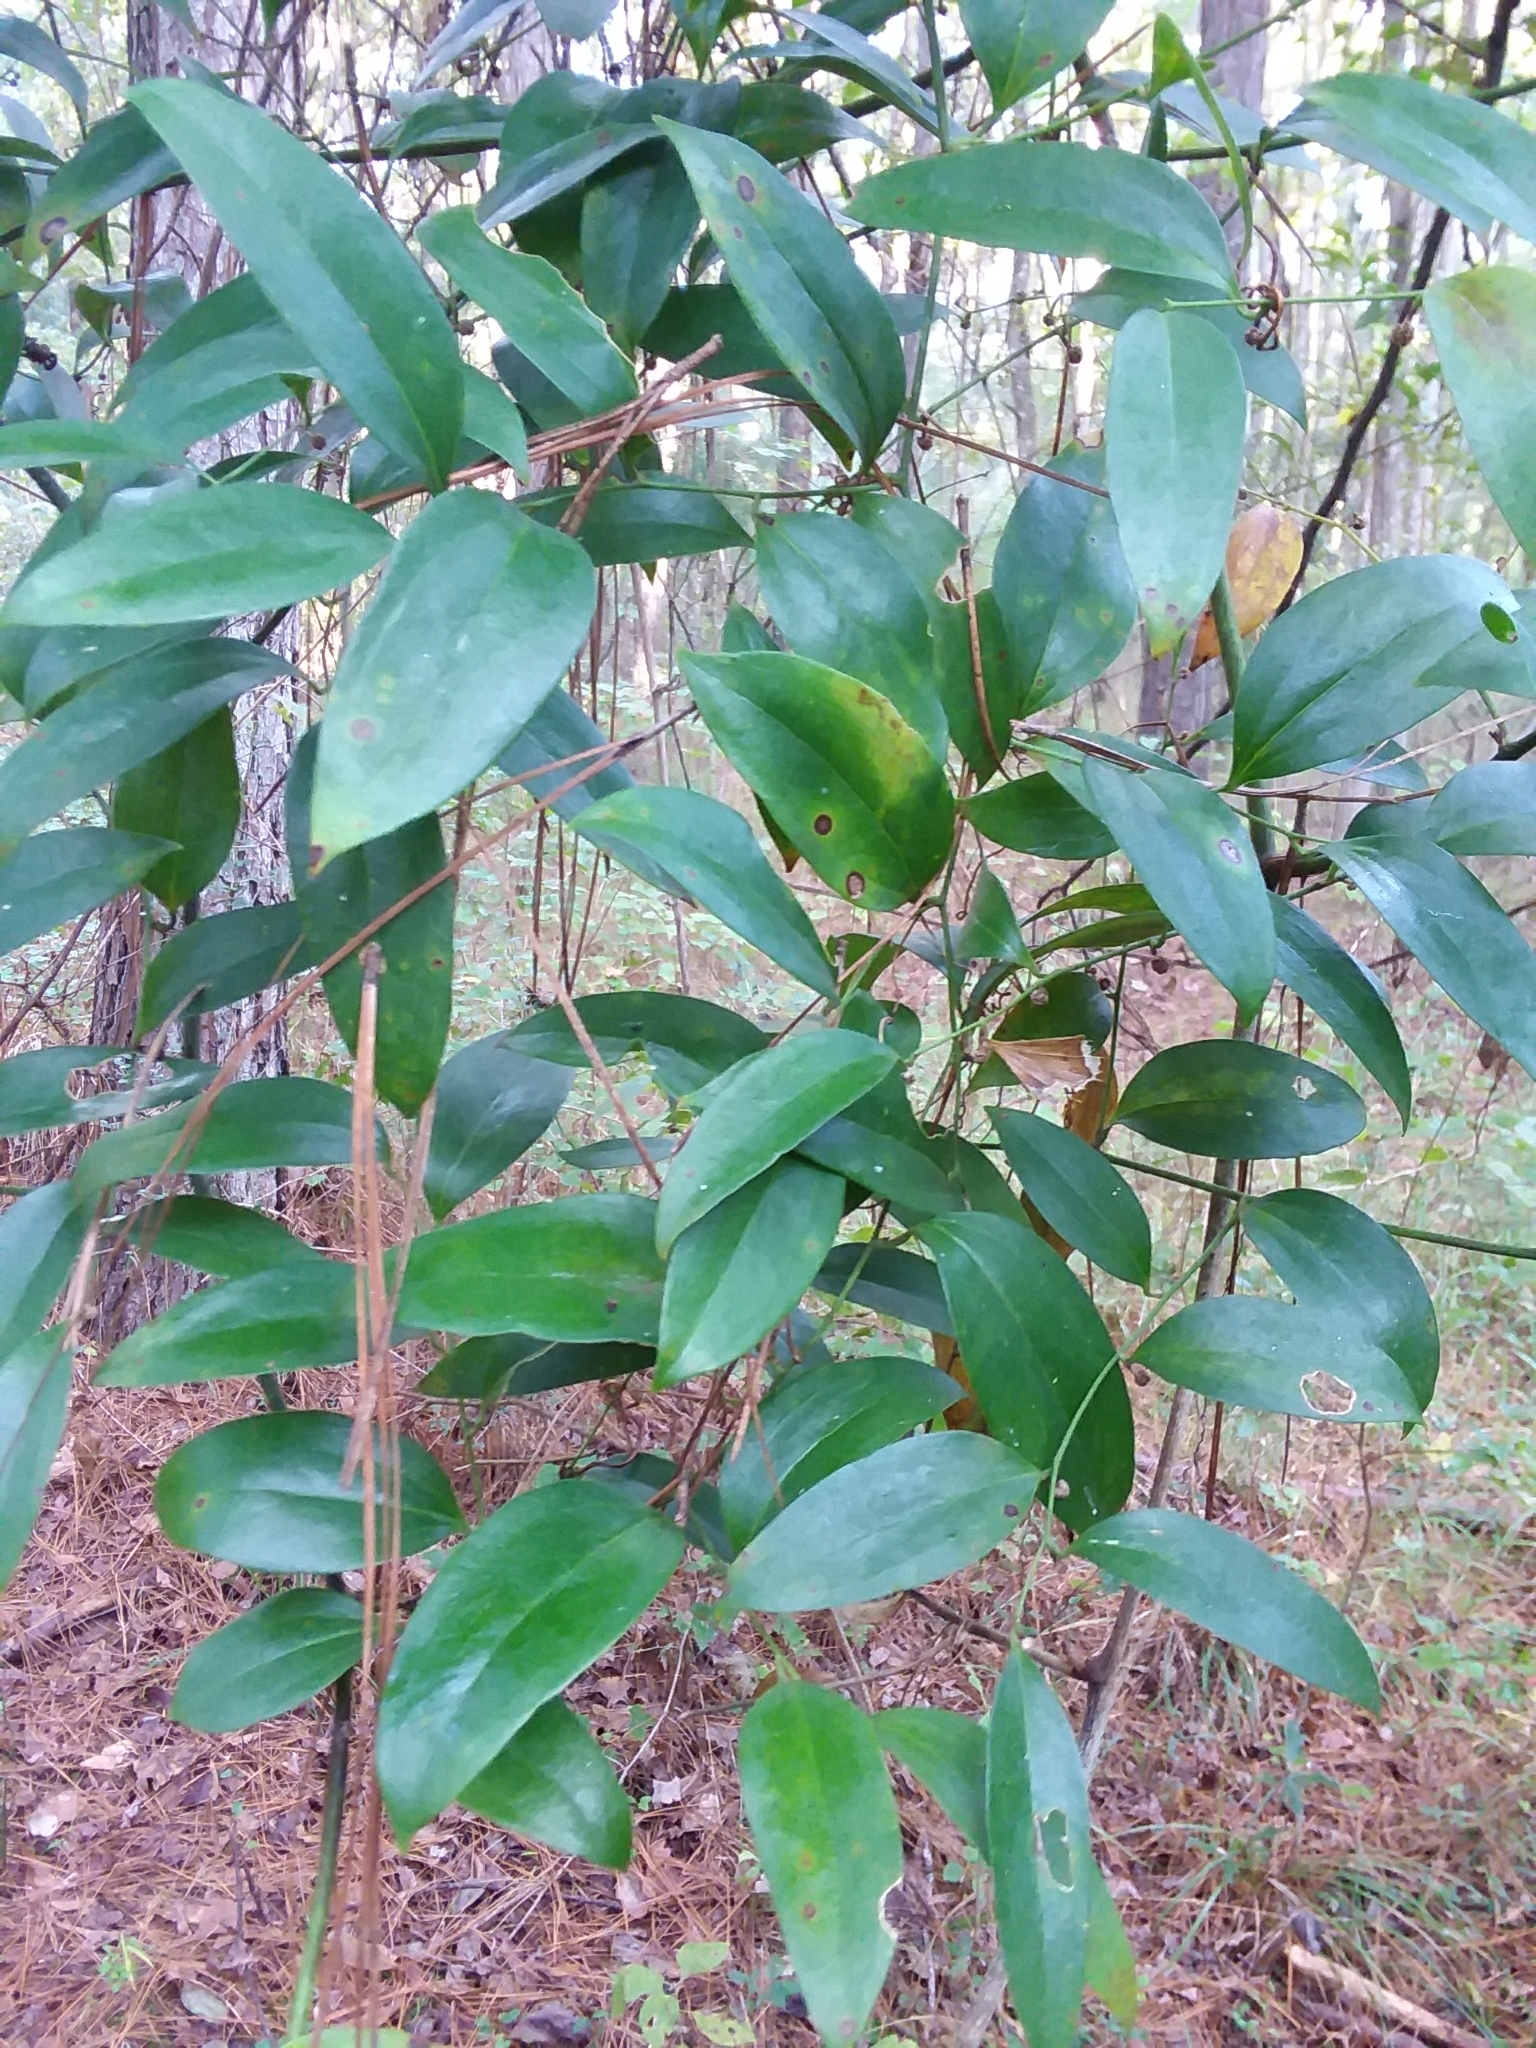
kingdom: Plantae
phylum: Tracheophyta
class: Liliopsida
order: Liliales
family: Smilacaceae
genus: Smilax
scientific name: Smilax maritima
